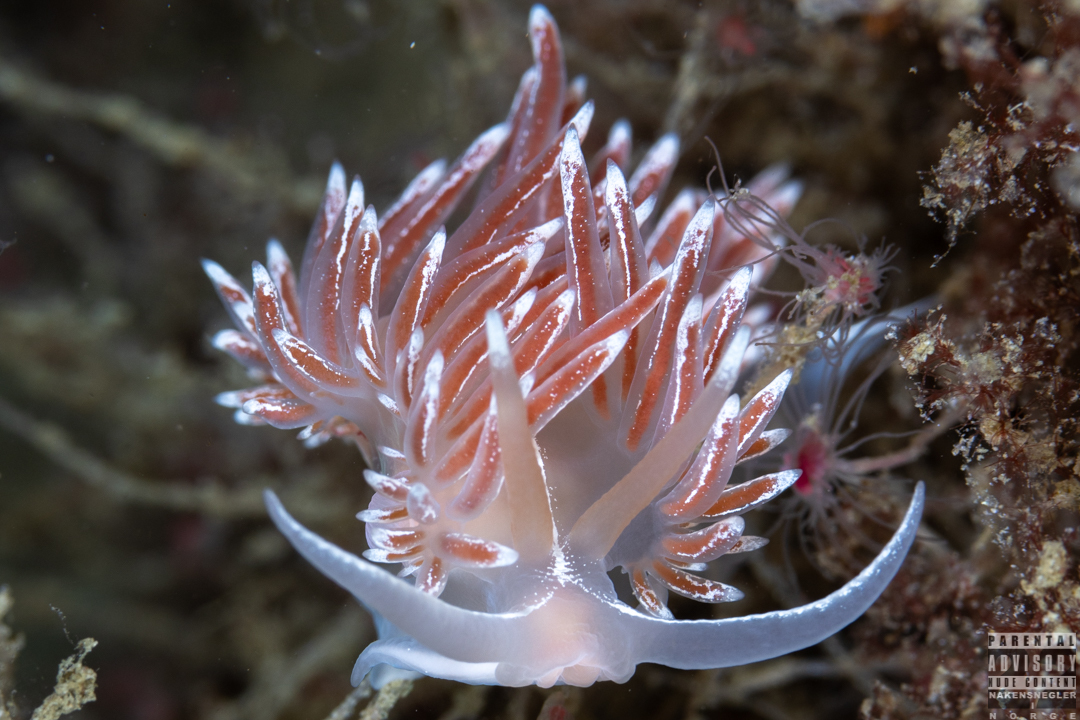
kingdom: Animalia
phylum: Mollusca
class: Gastropoda
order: Nudibranchia
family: Coryphellidae
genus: Coryphella
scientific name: Coryphella lineata
